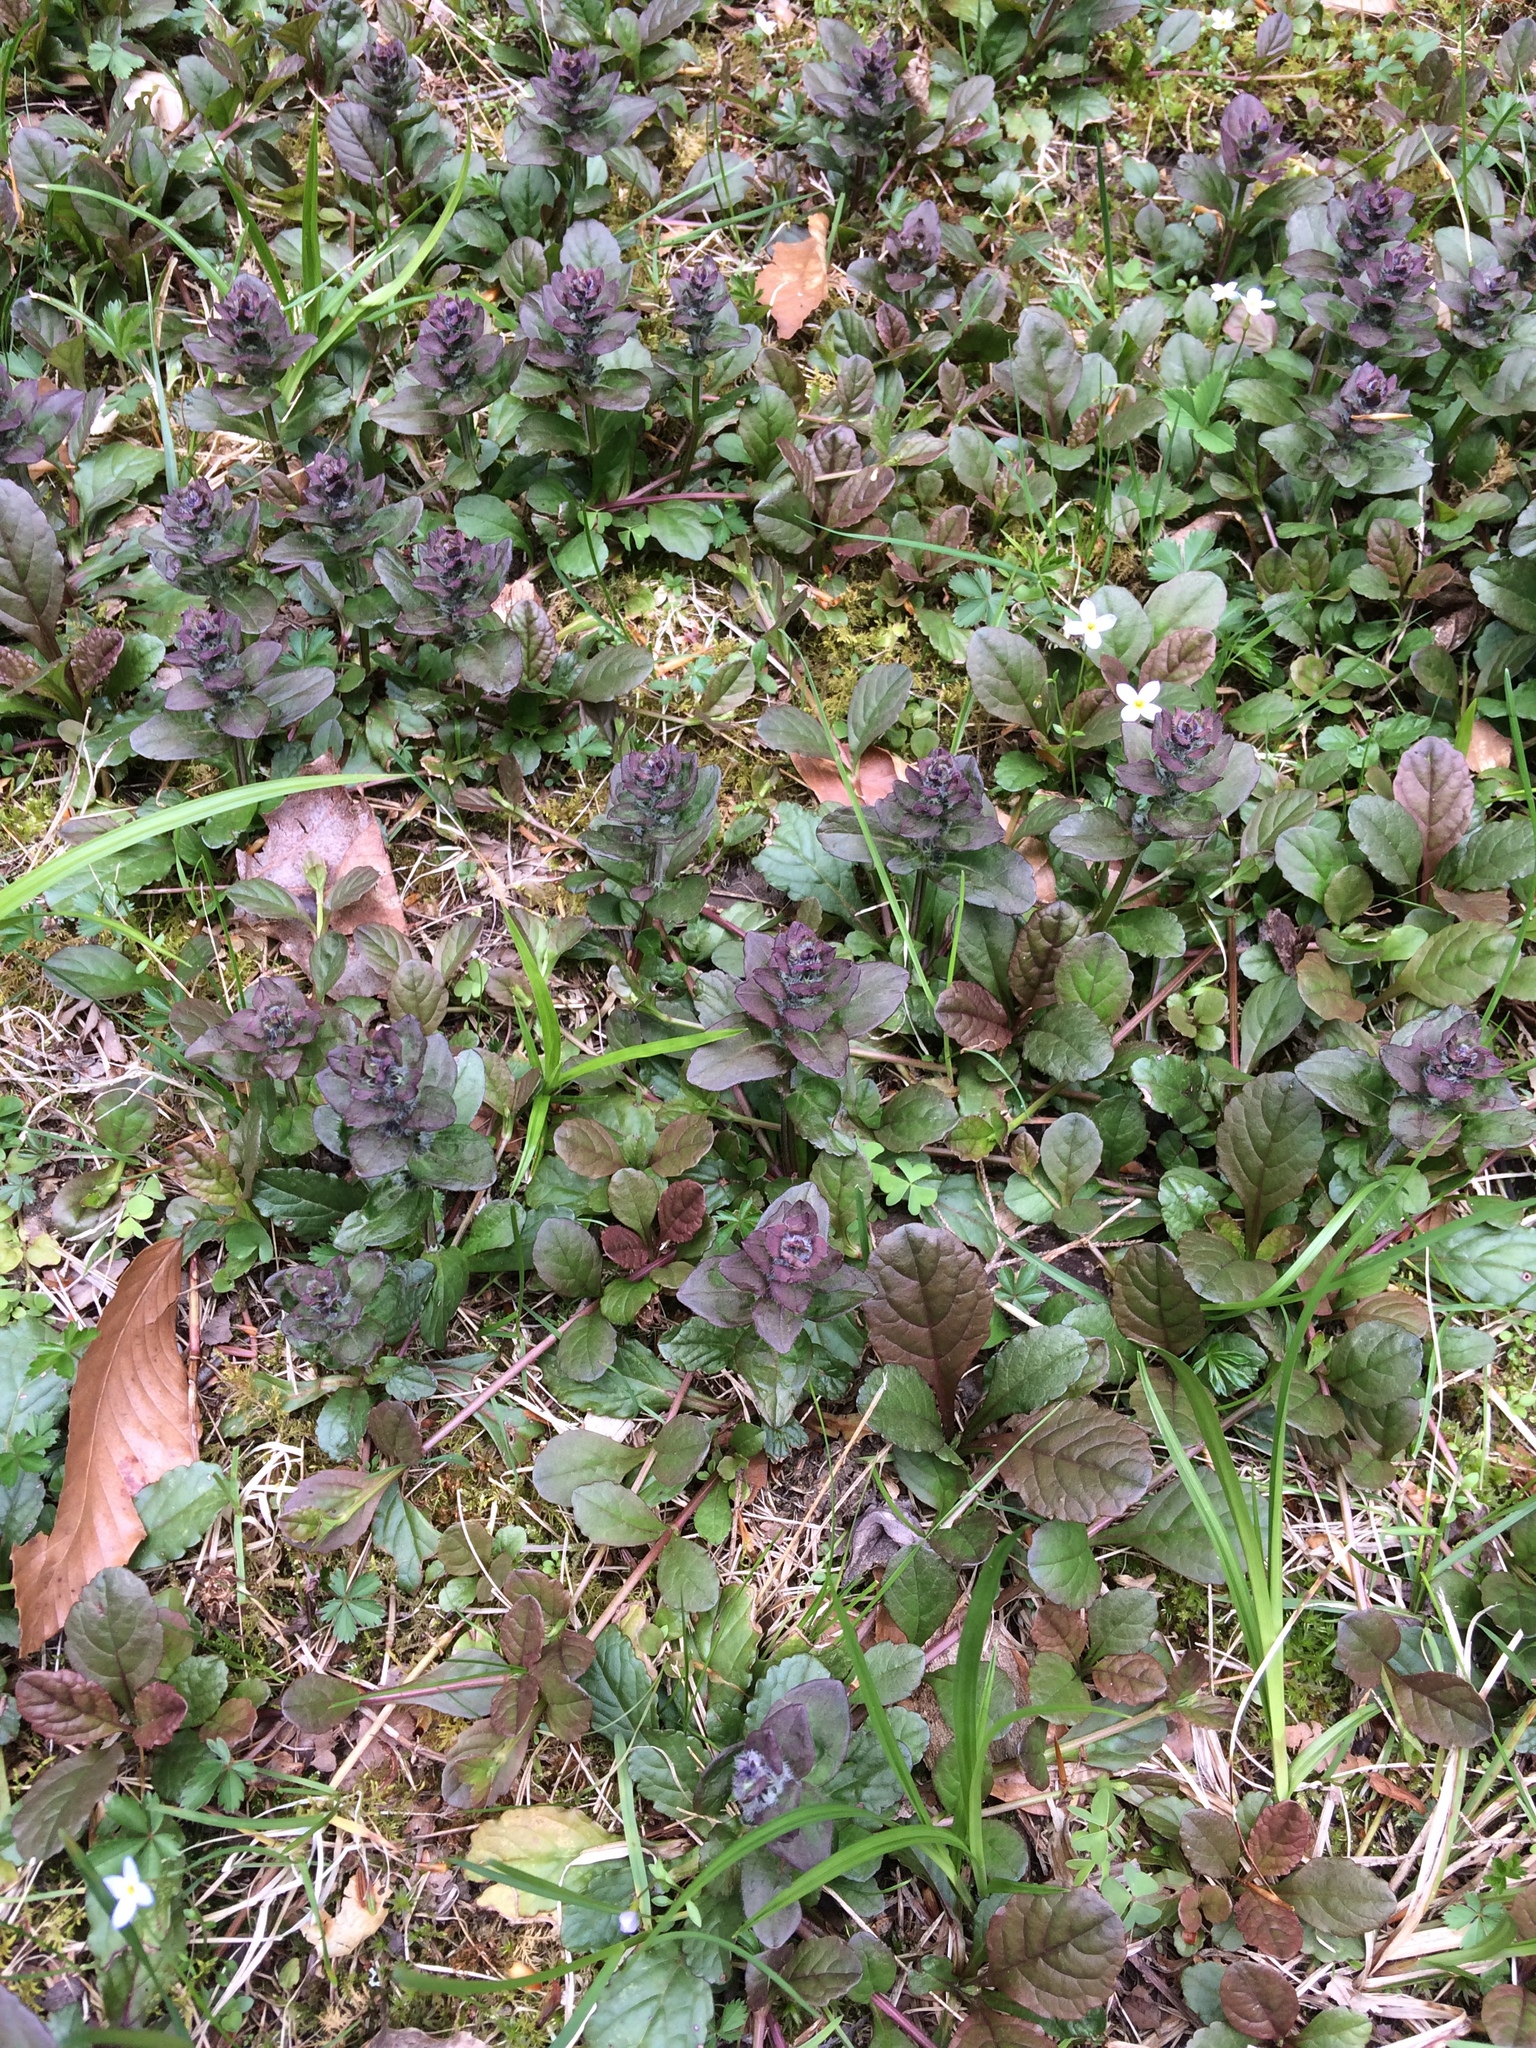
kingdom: Plantae
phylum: Tracheophyta
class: Magnoliopsida
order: Lamiales
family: Lamiaceae
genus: Ajuga
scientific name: Ajuga reptans
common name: Bugle
